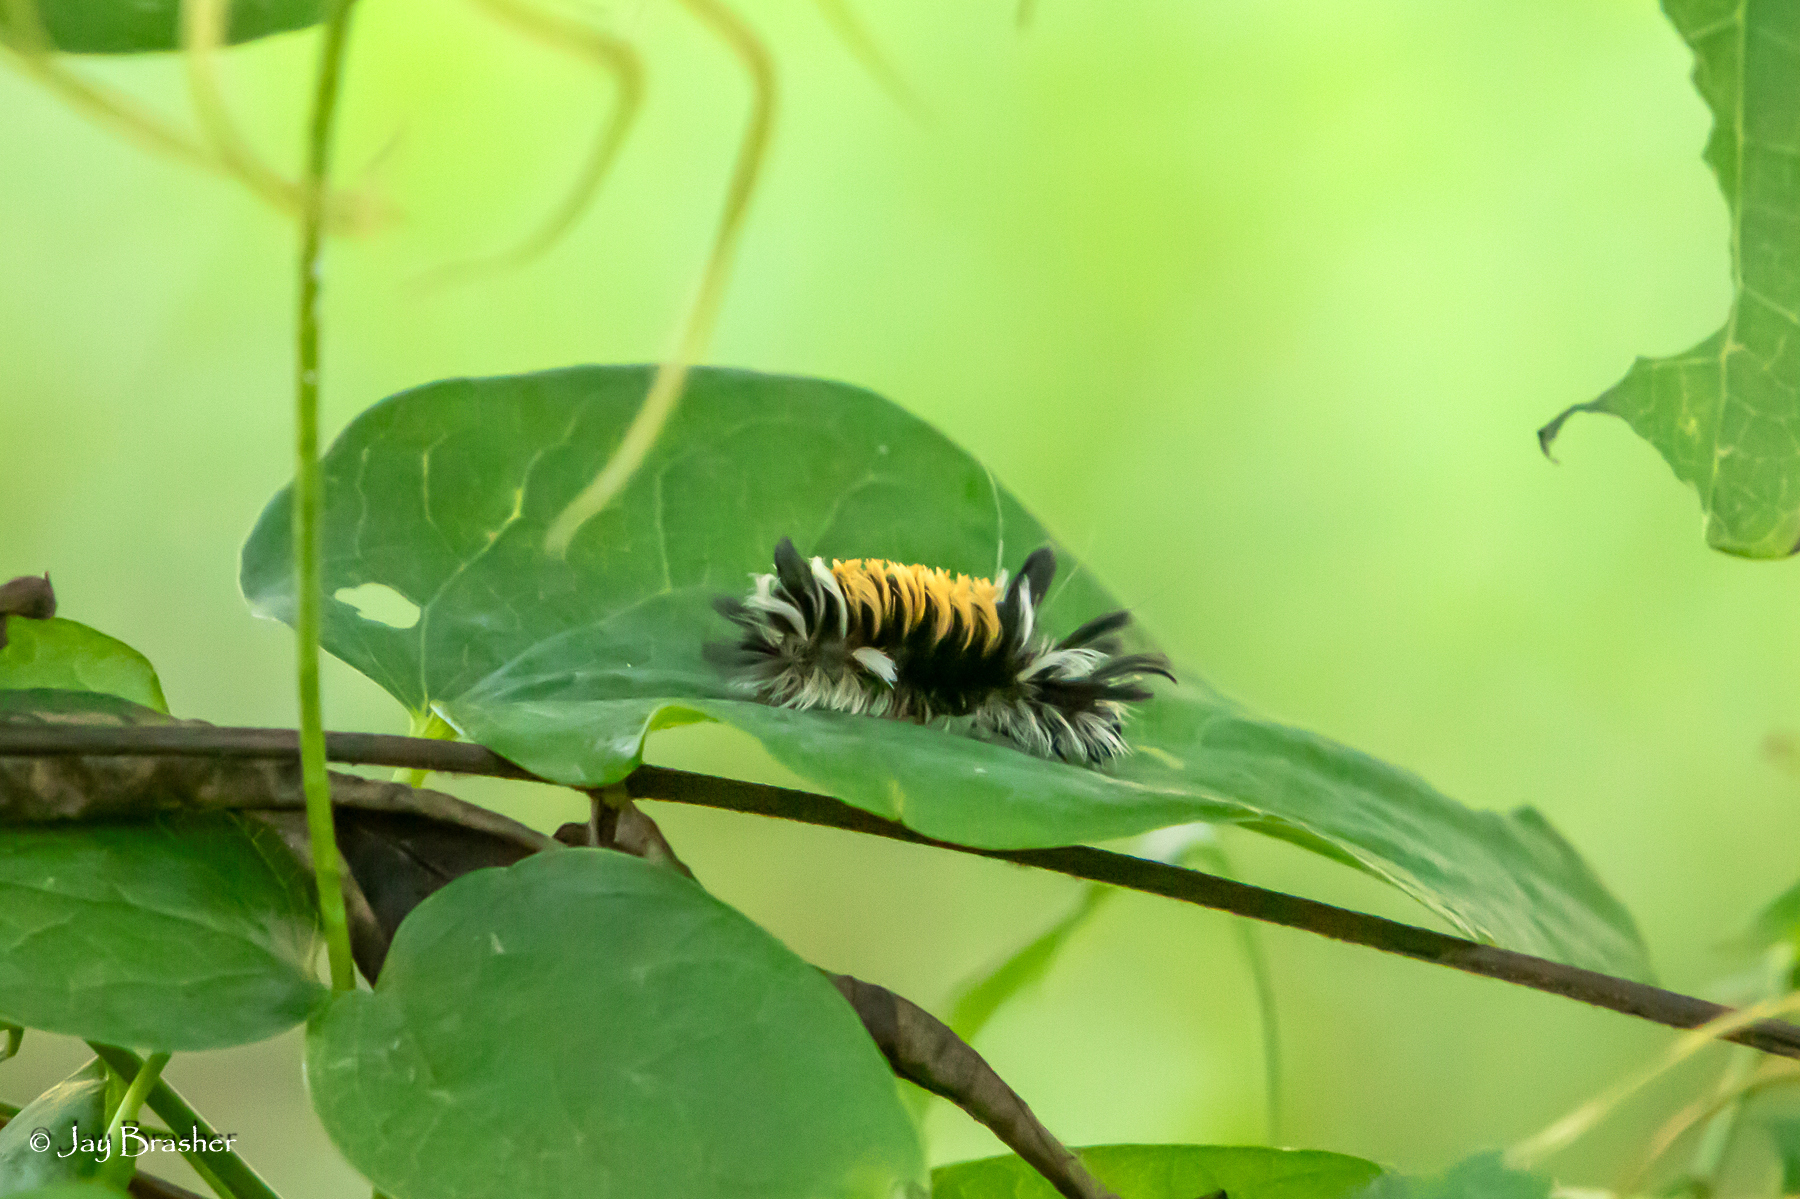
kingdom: Animalia
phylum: Arthropoda
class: Insecta
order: Lepidoptera
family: Erebidae
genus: Euchaetes
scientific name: Euchaetes egle
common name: Milkweed tussock moth
